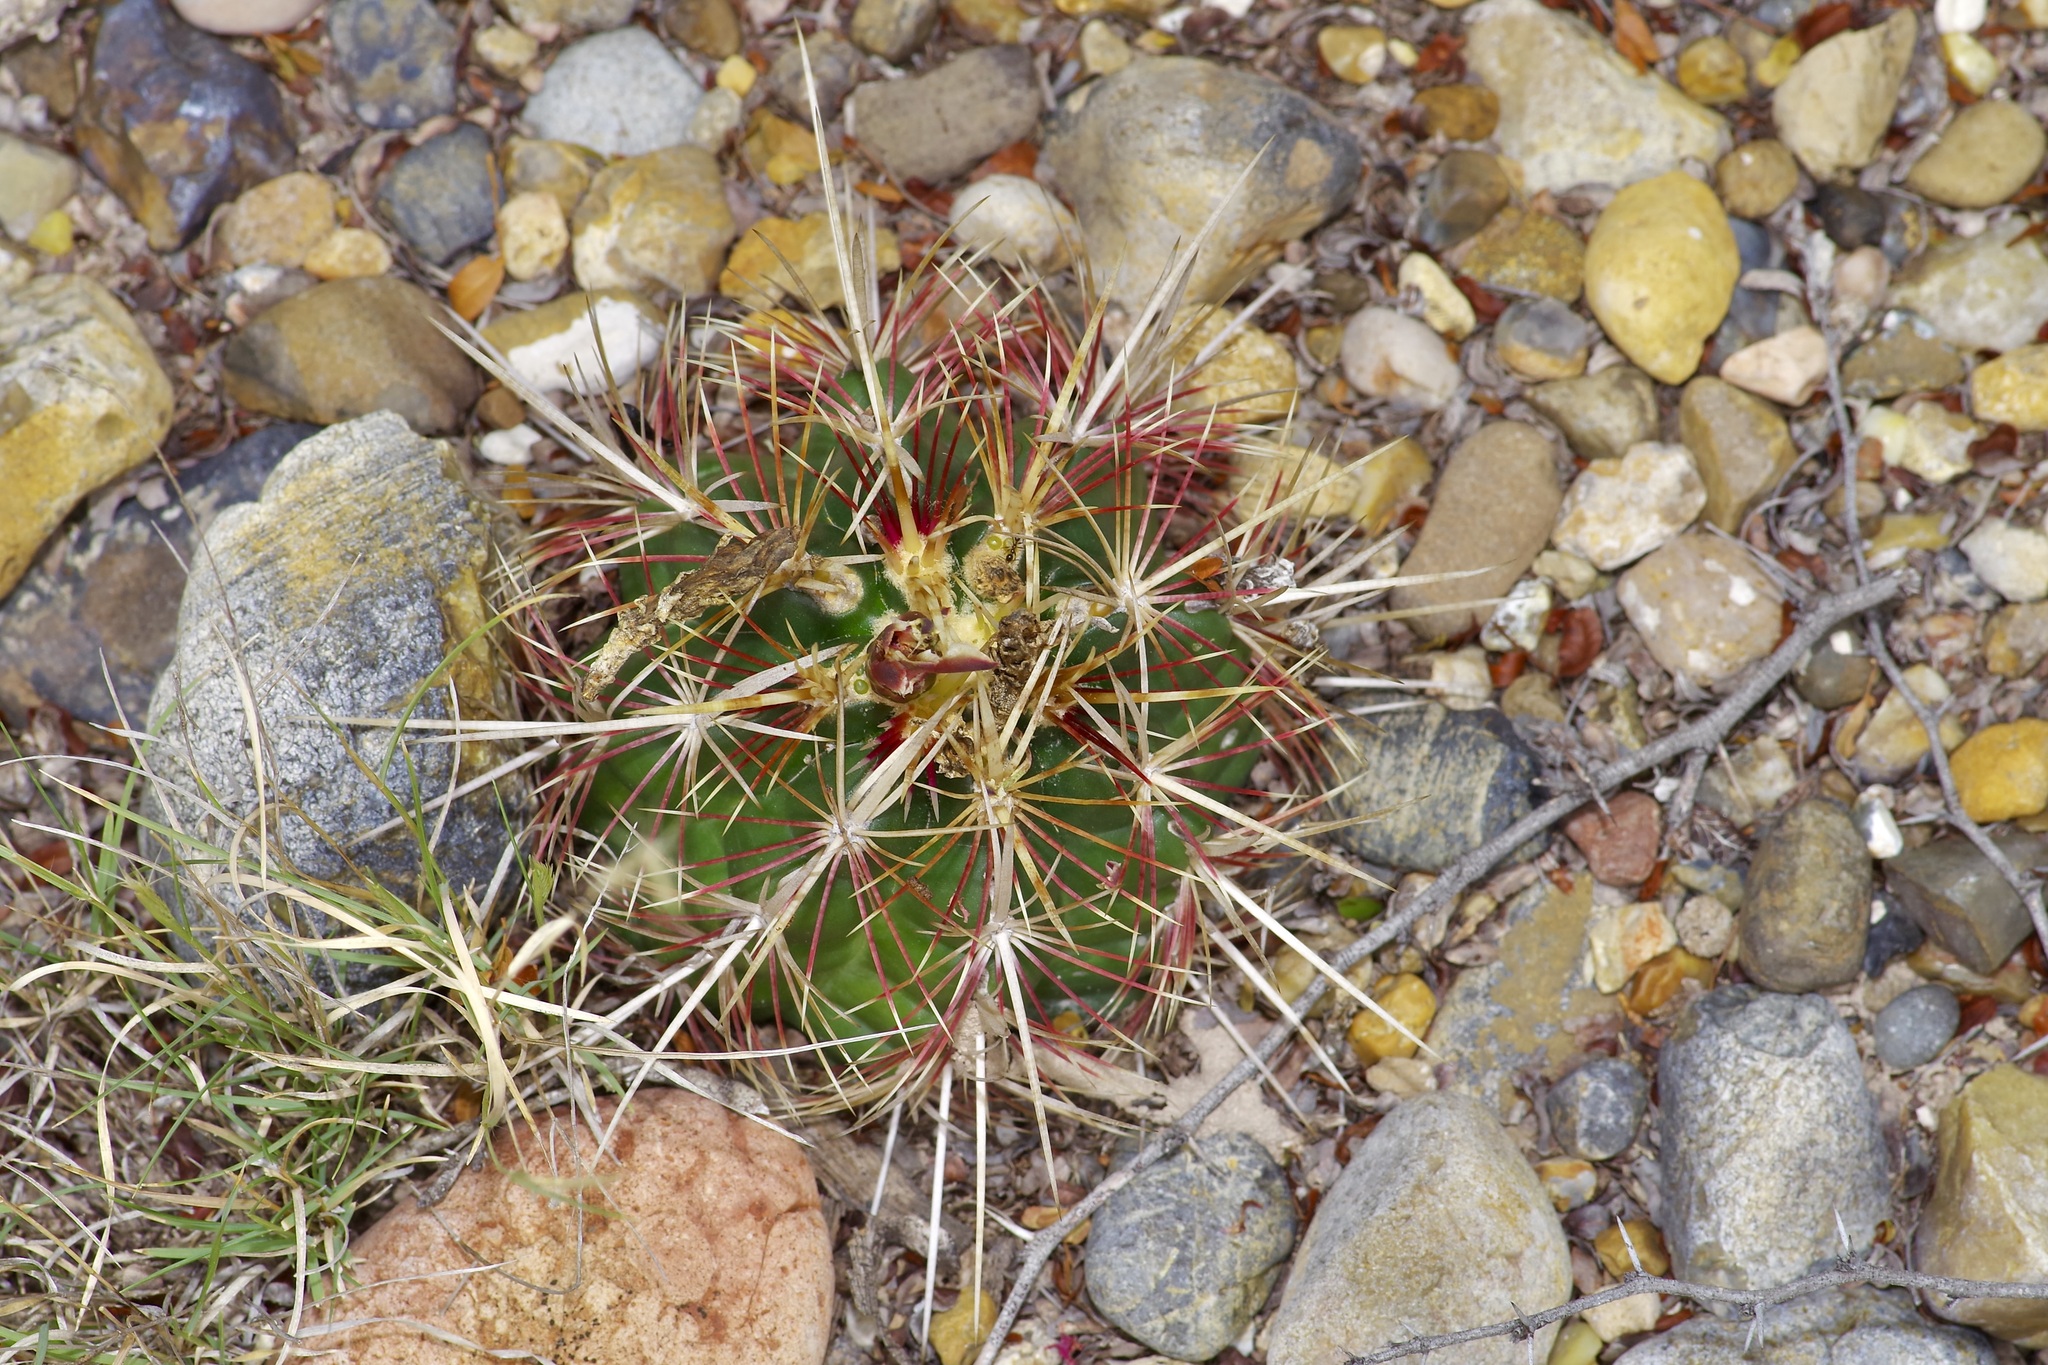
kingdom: Plantae
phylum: Tracheophyta
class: Magnoliopsida
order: Caryophyllales
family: Cactaceae
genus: Thelocactus
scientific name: Thelocactus bicolor
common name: Glory of texas
